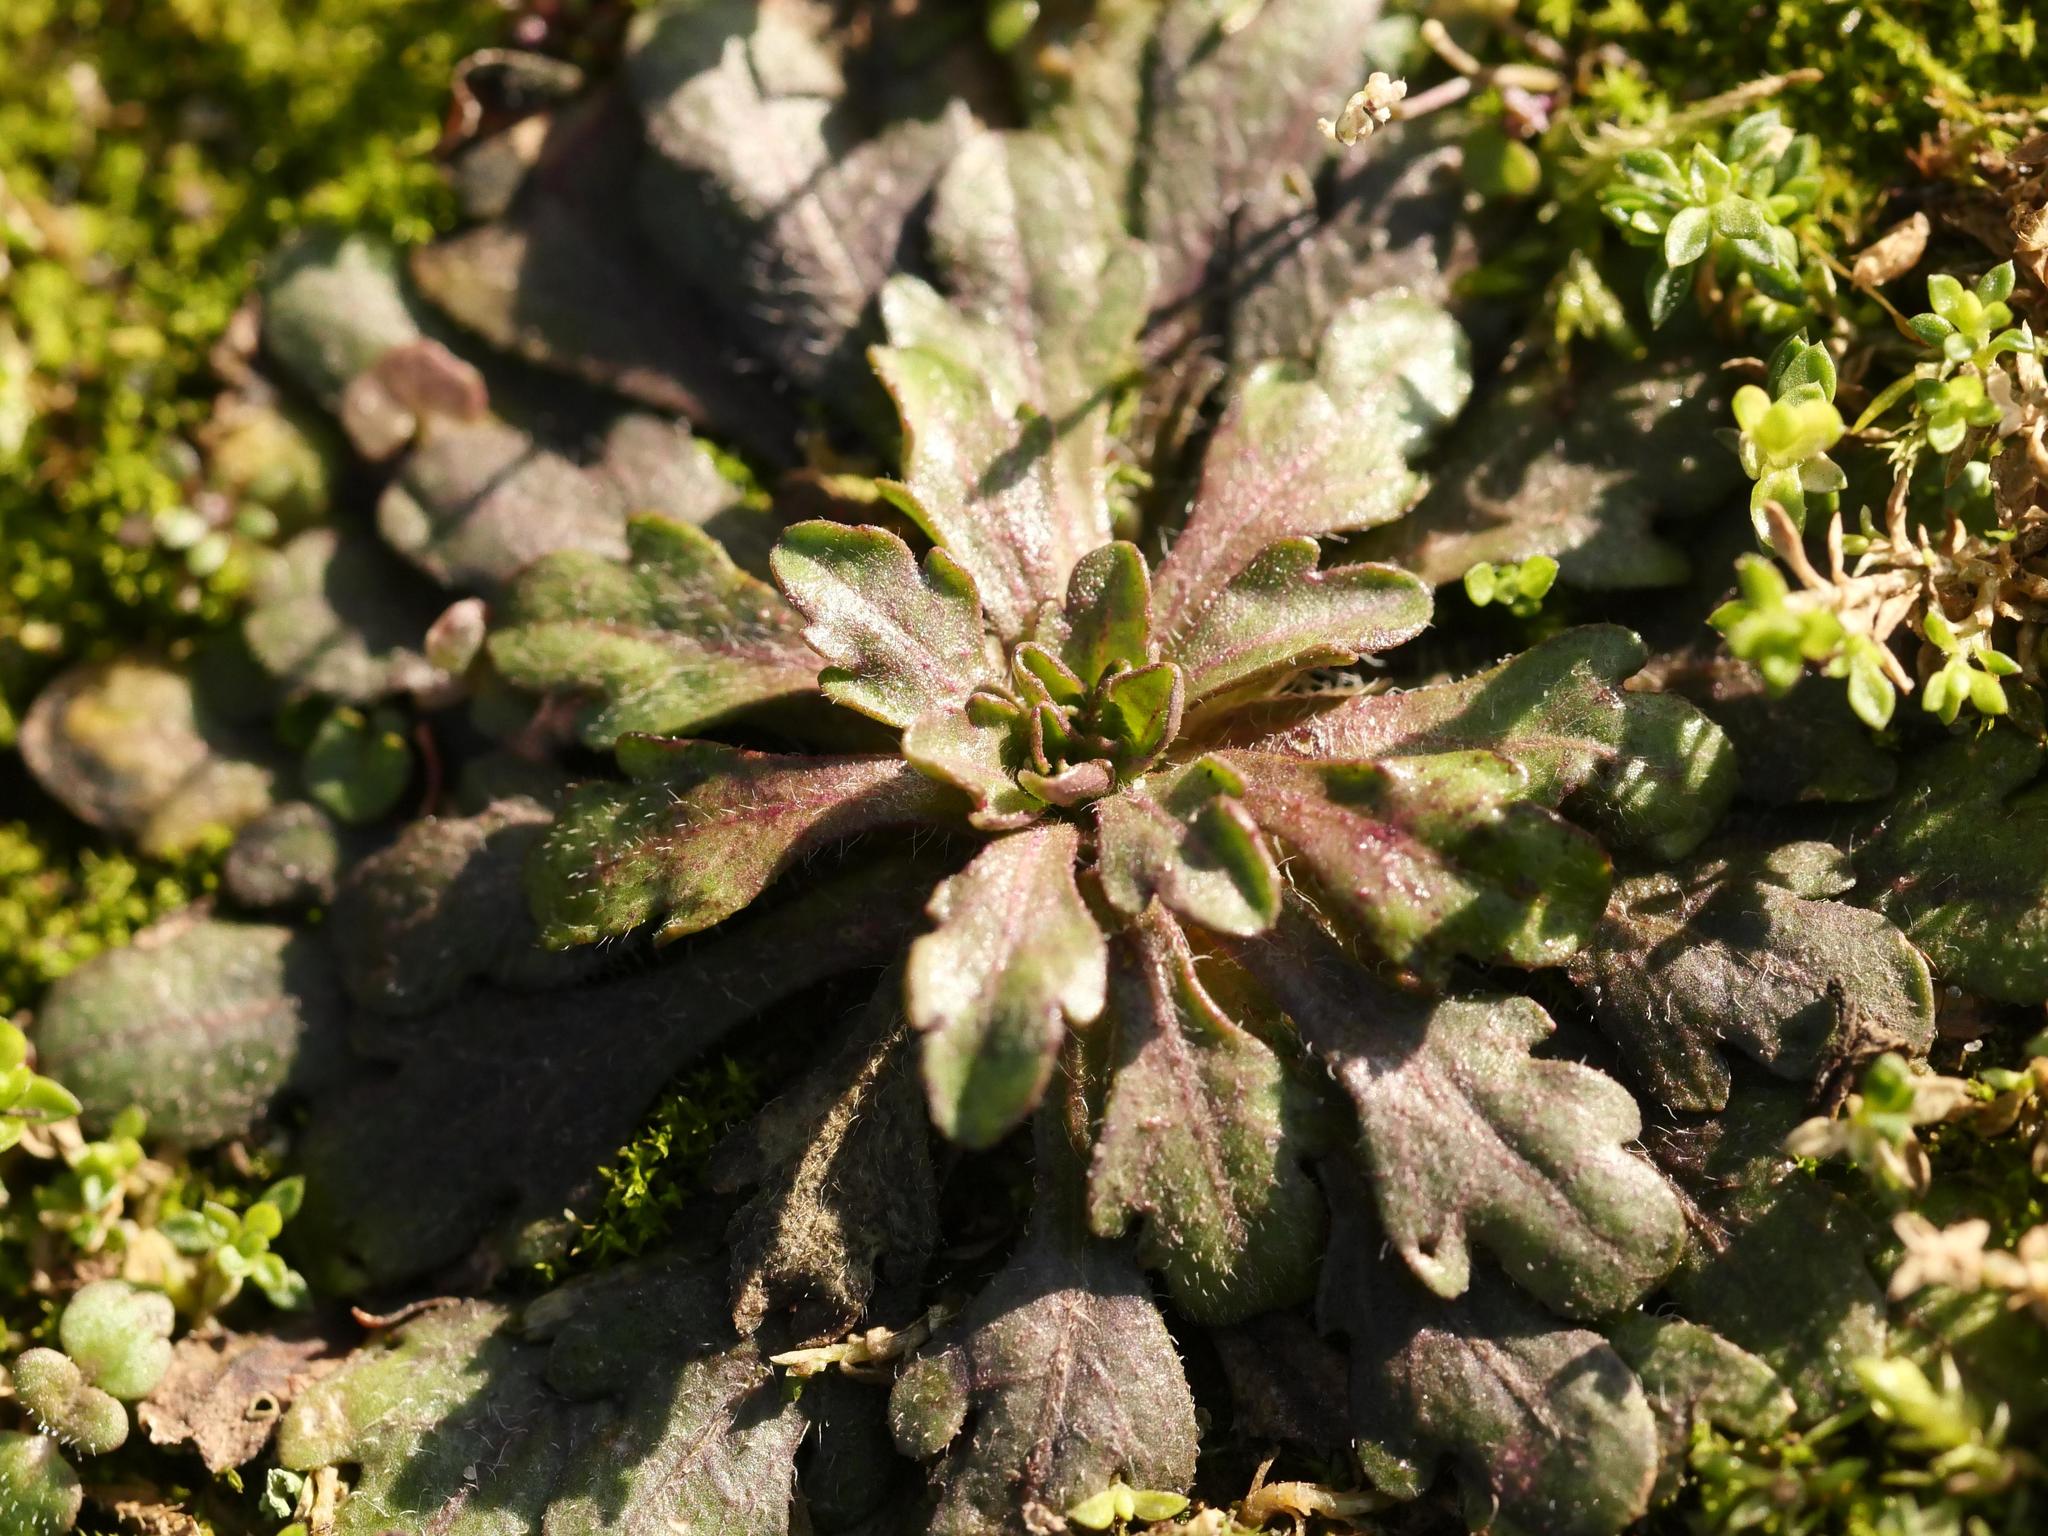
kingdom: Plantae
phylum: Tracheophyta
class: Magnoliopsida
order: Asterales
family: Asteraceae
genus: Erigeron
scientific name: Erigeron canadensis
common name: Canadian fleabane
